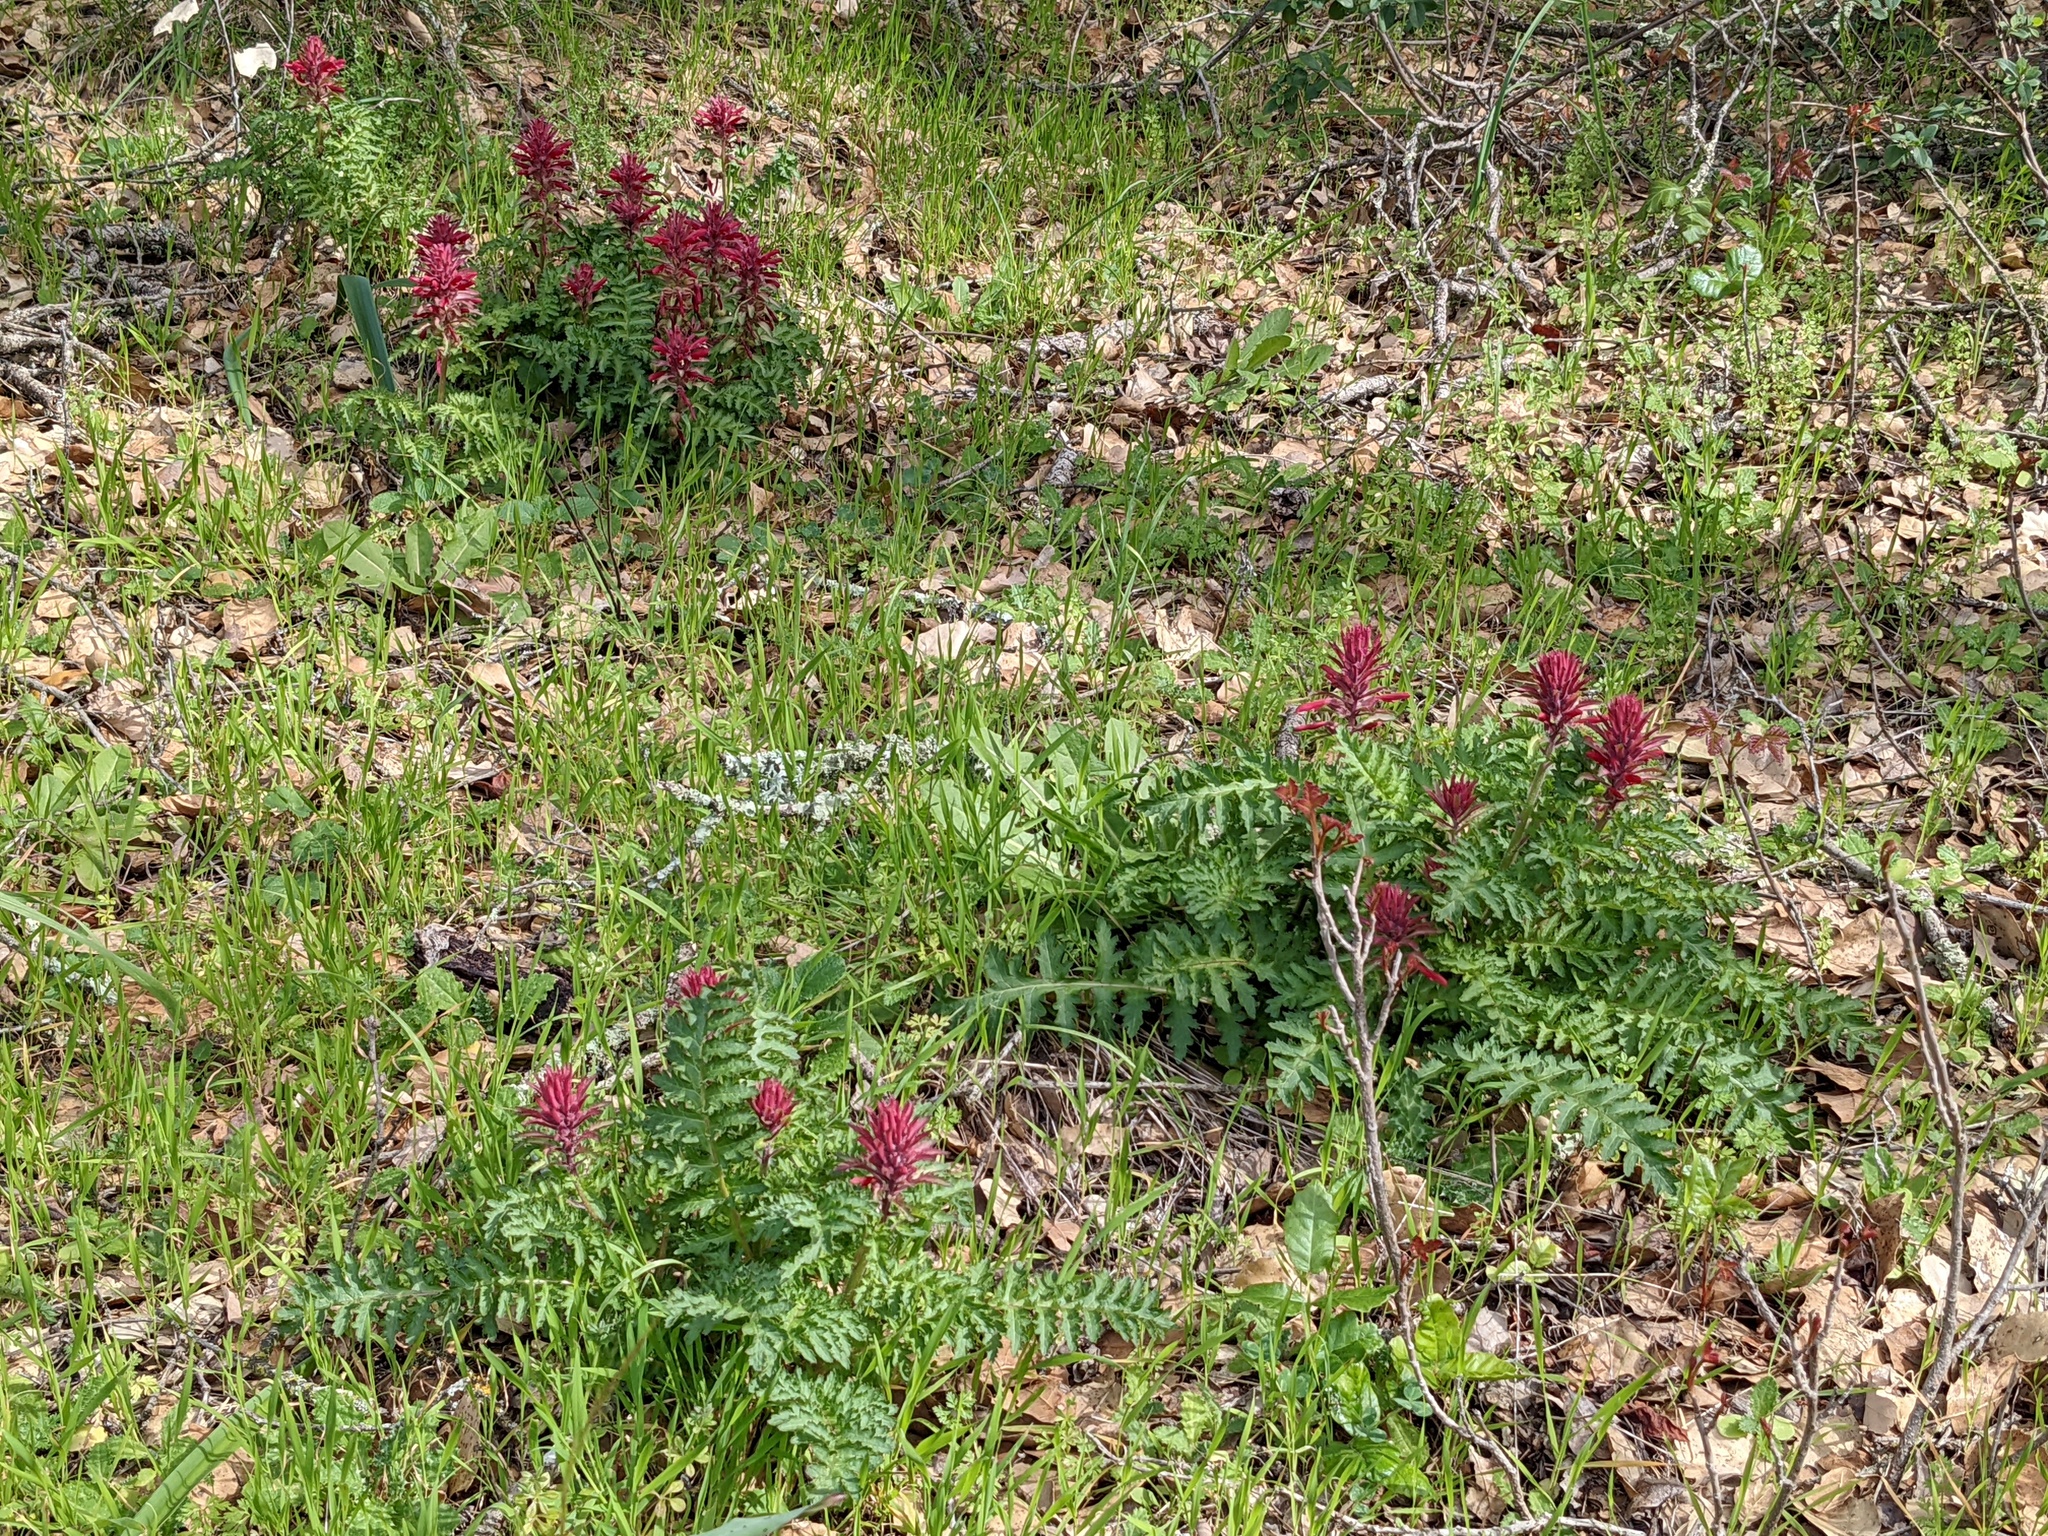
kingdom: Plantae
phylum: Tracheophyta
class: Magnoliopsida
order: Lamiales
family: Orobanchaceae
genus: Pedicularis
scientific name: Pedicularis densiflora
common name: Indian warrior
